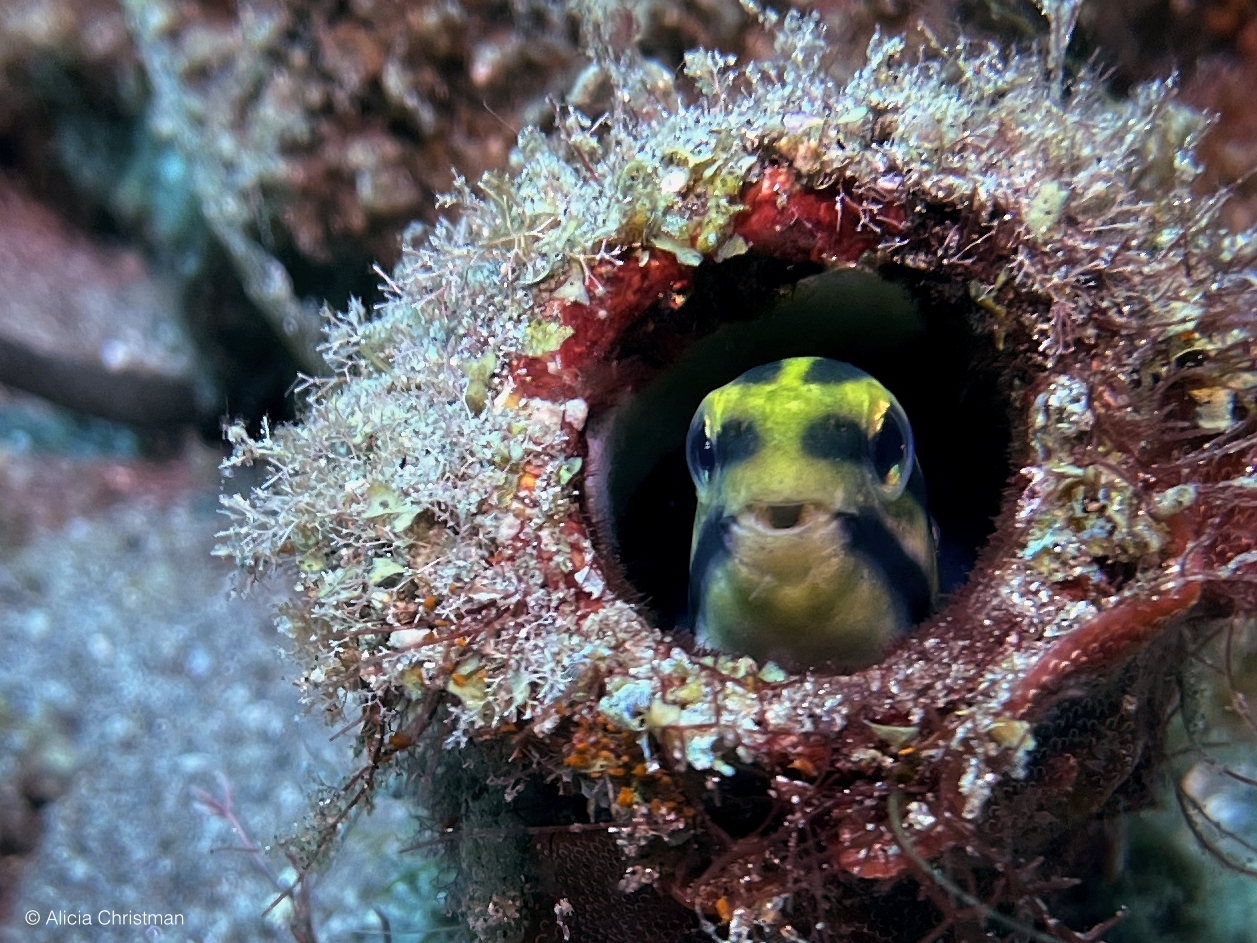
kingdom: Animalia
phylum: Chordata
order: Perciformes
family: Blenniidae
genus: Petroscirtes
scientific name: Petroscirtes breviceps
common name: Short-head sabretooth blenny
